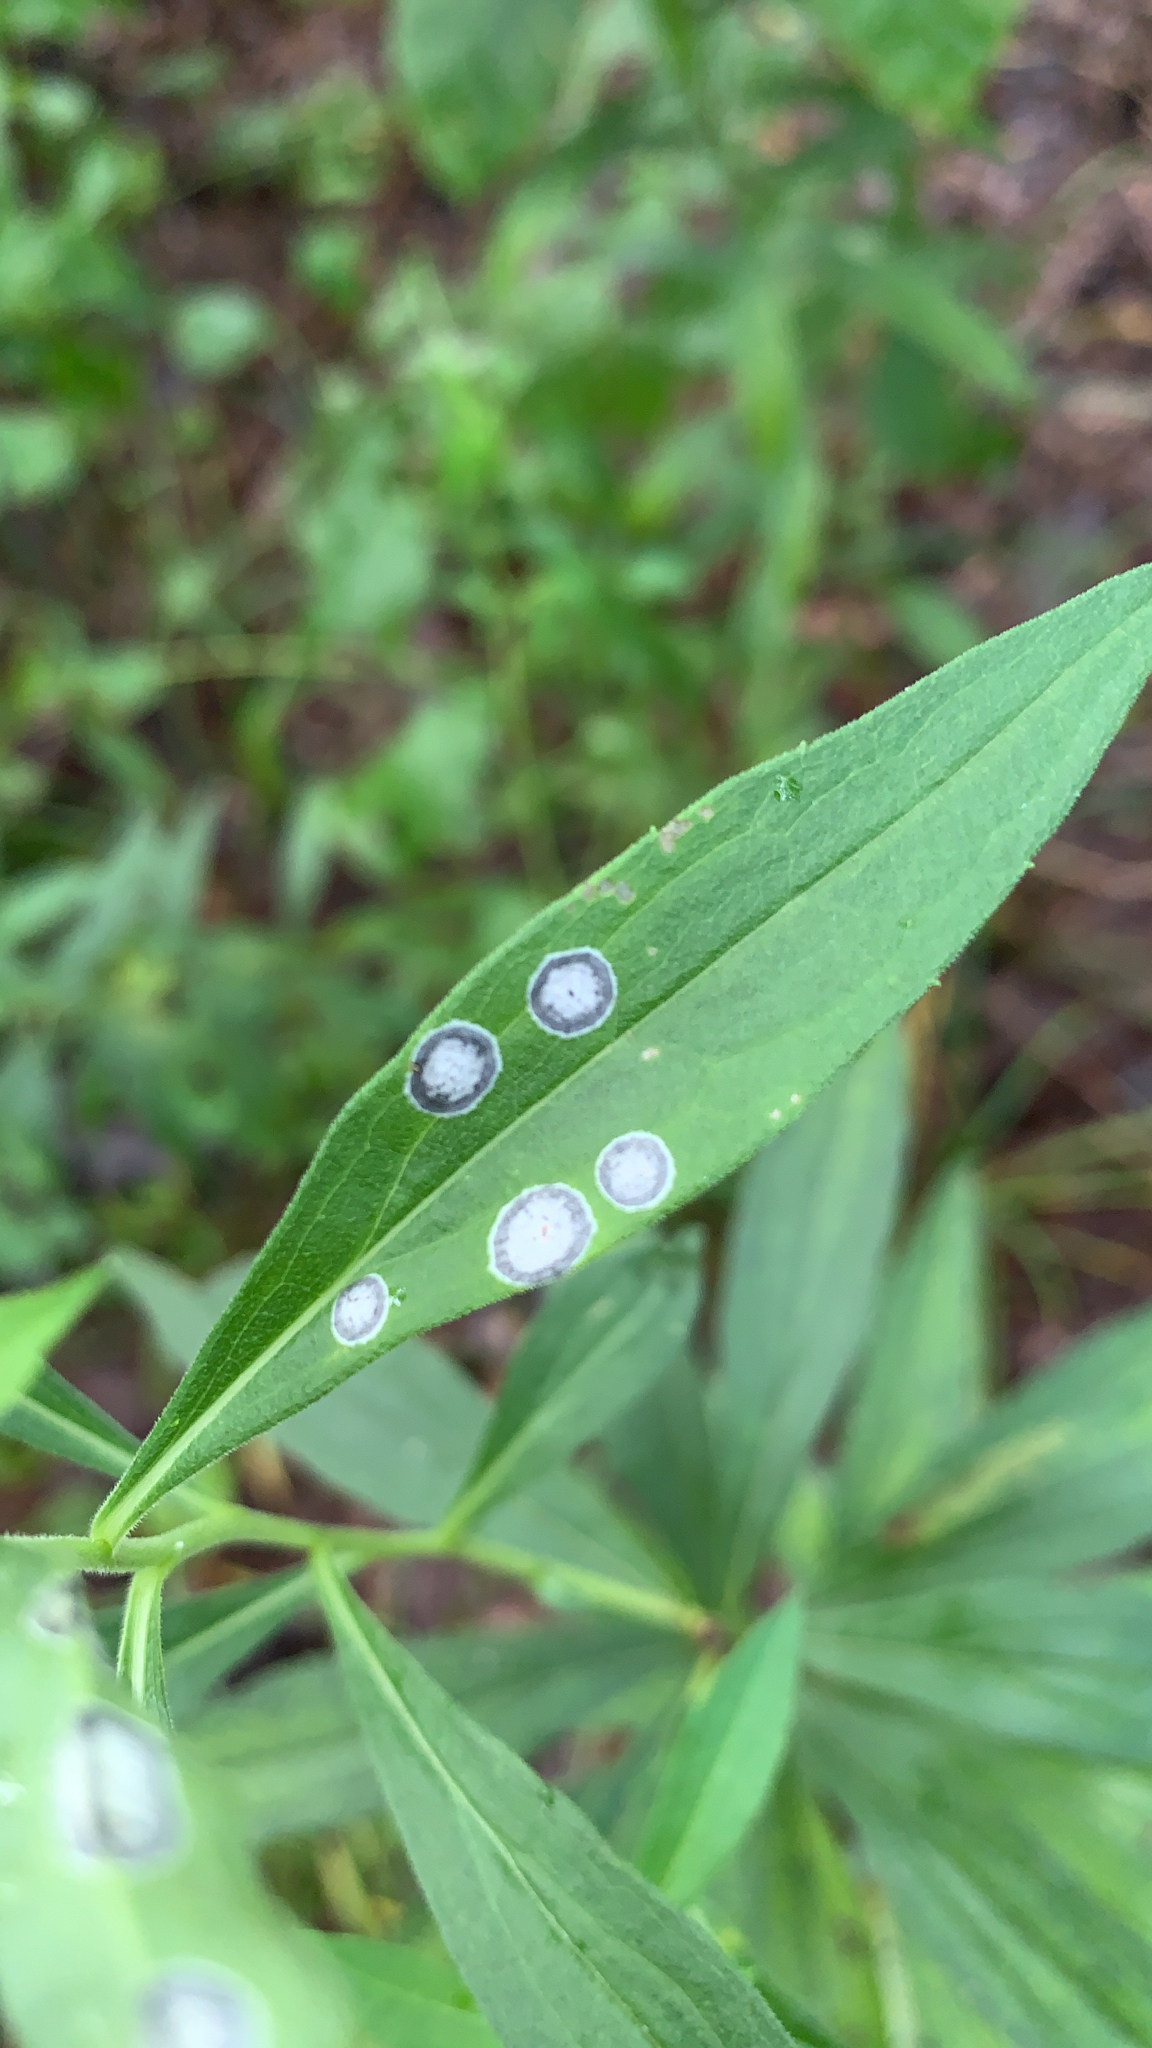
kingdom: Animalia
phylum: Arthropoda
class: Insecta
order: Diptera
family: Cecidomyiidae
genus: Asteromyia
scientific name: Asteromyia carbonifera
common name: Carbonifera goldenrod gall midge
